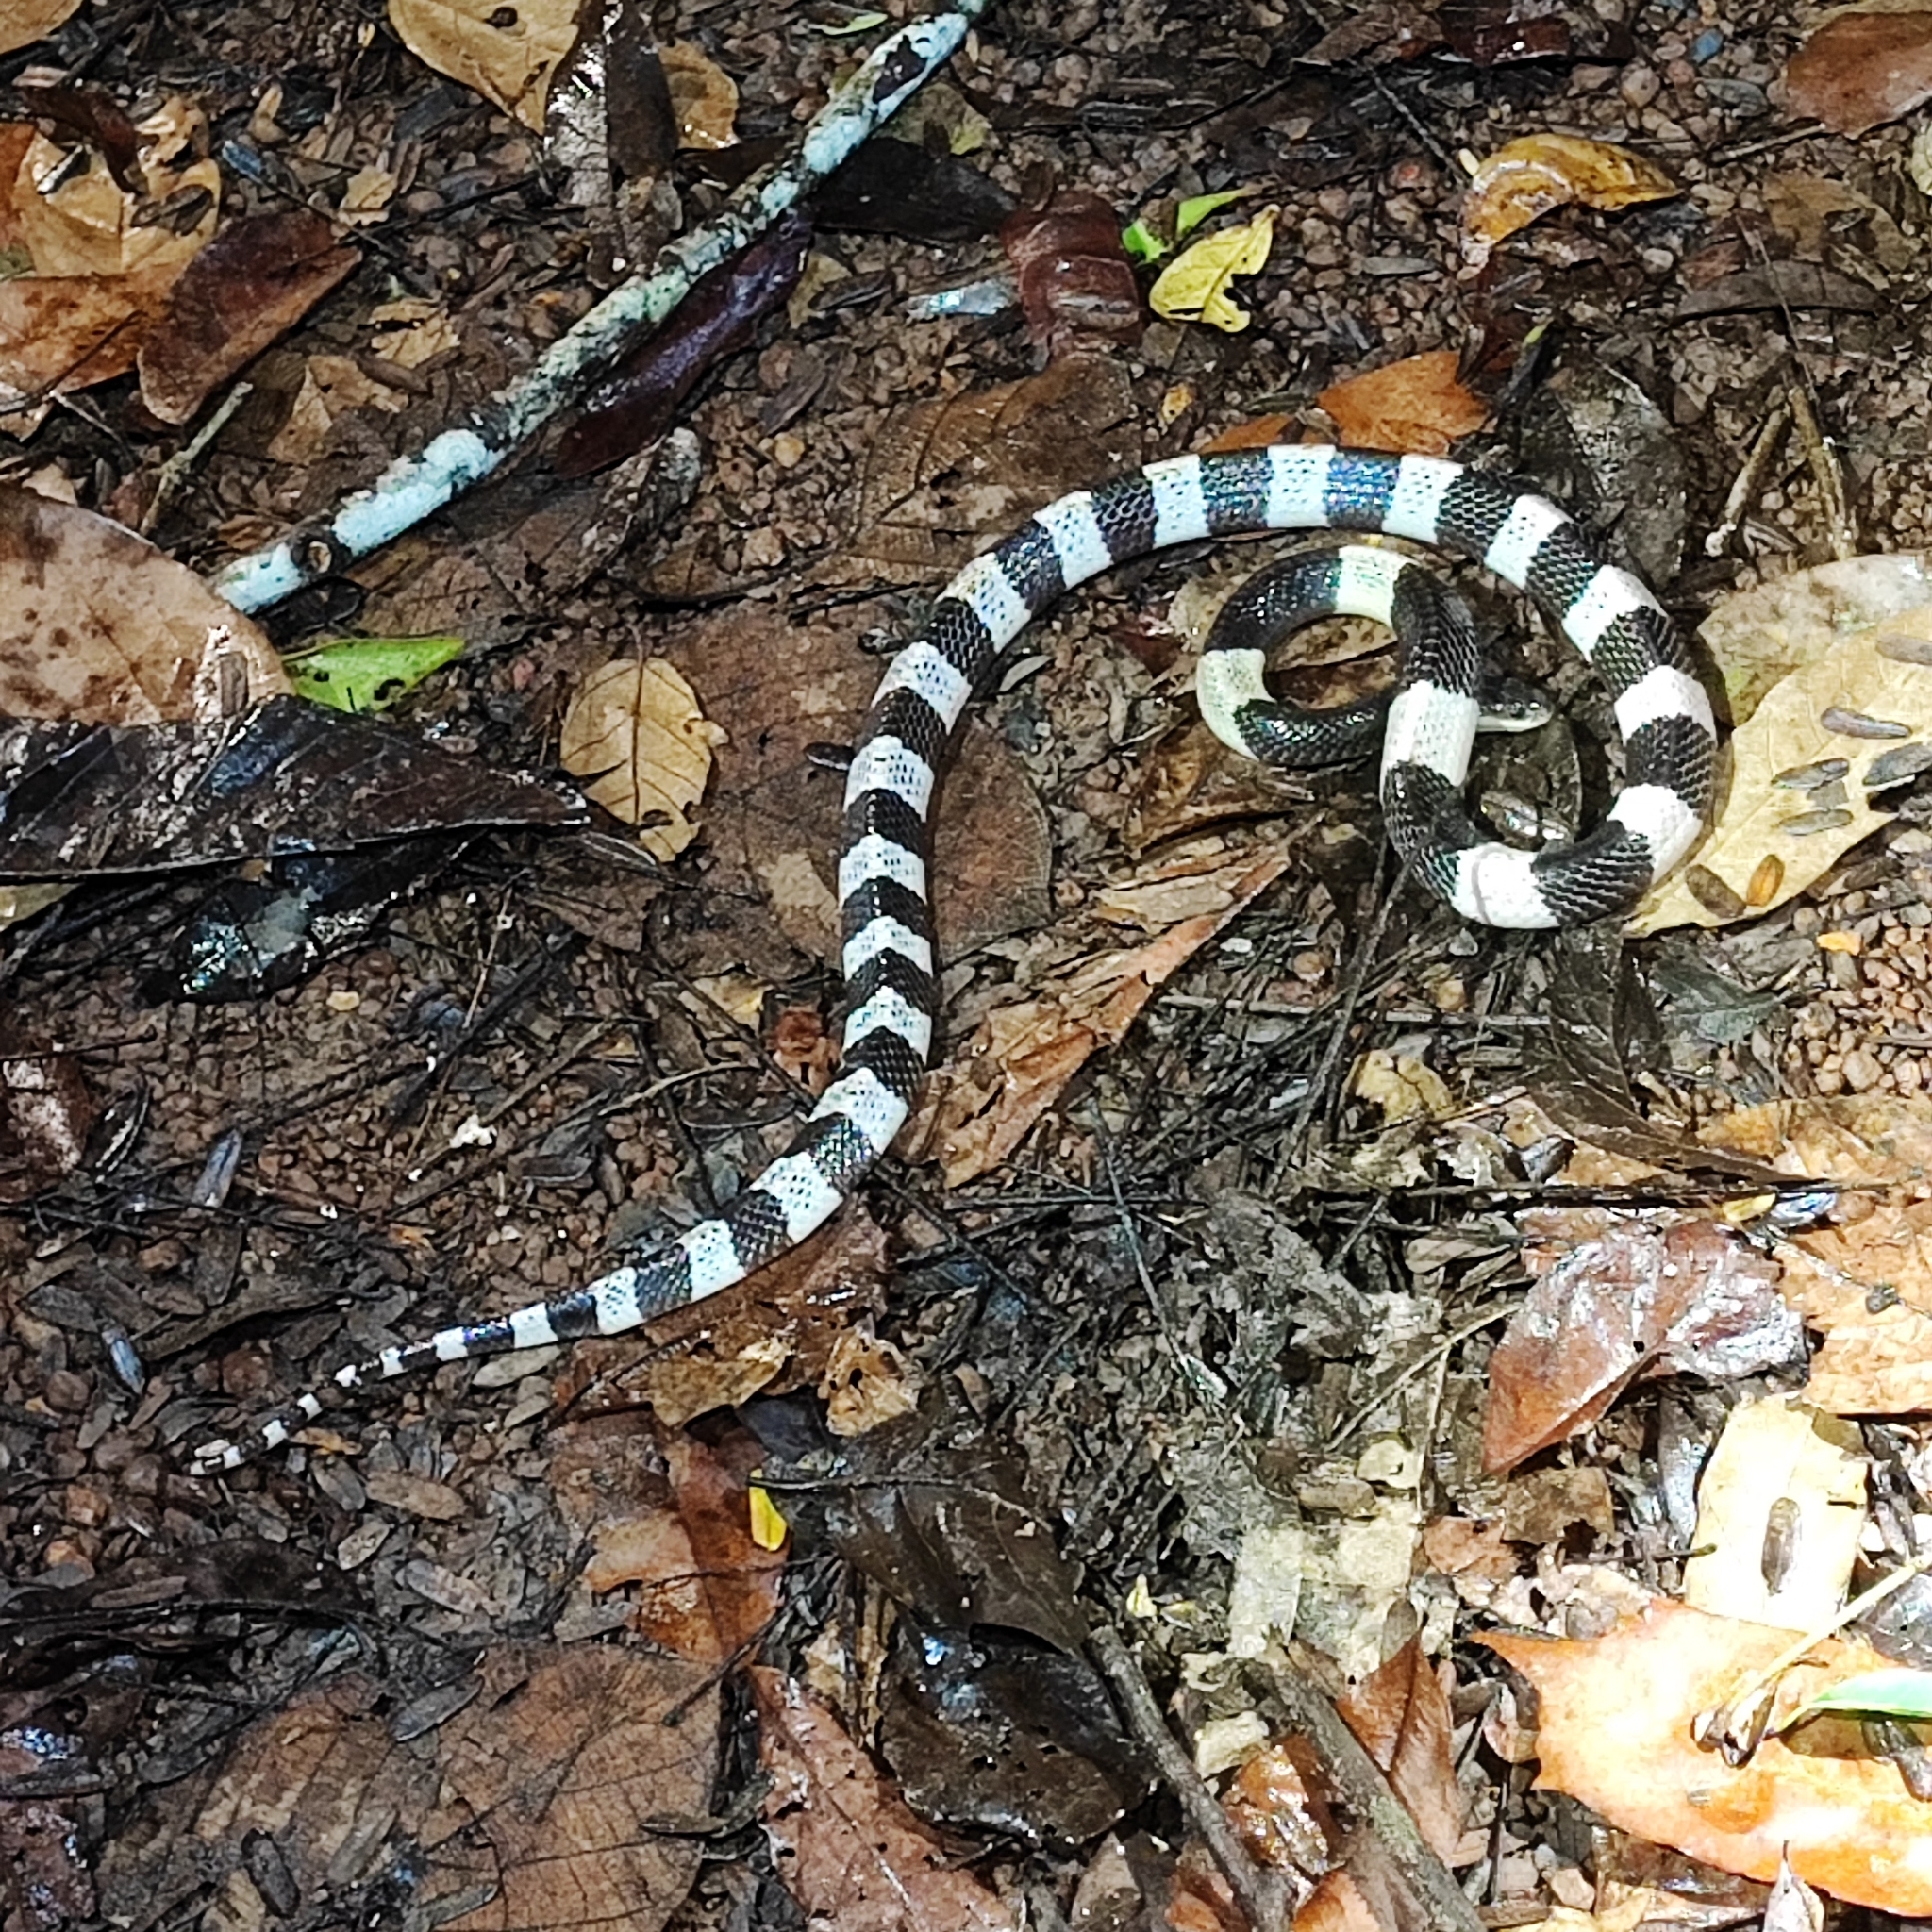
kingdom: Animalia
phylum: Chordata
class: Squamata
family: Elapidae
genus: Bungarus
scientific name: Bungarus candidus
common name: Blue krait/malayan krait
